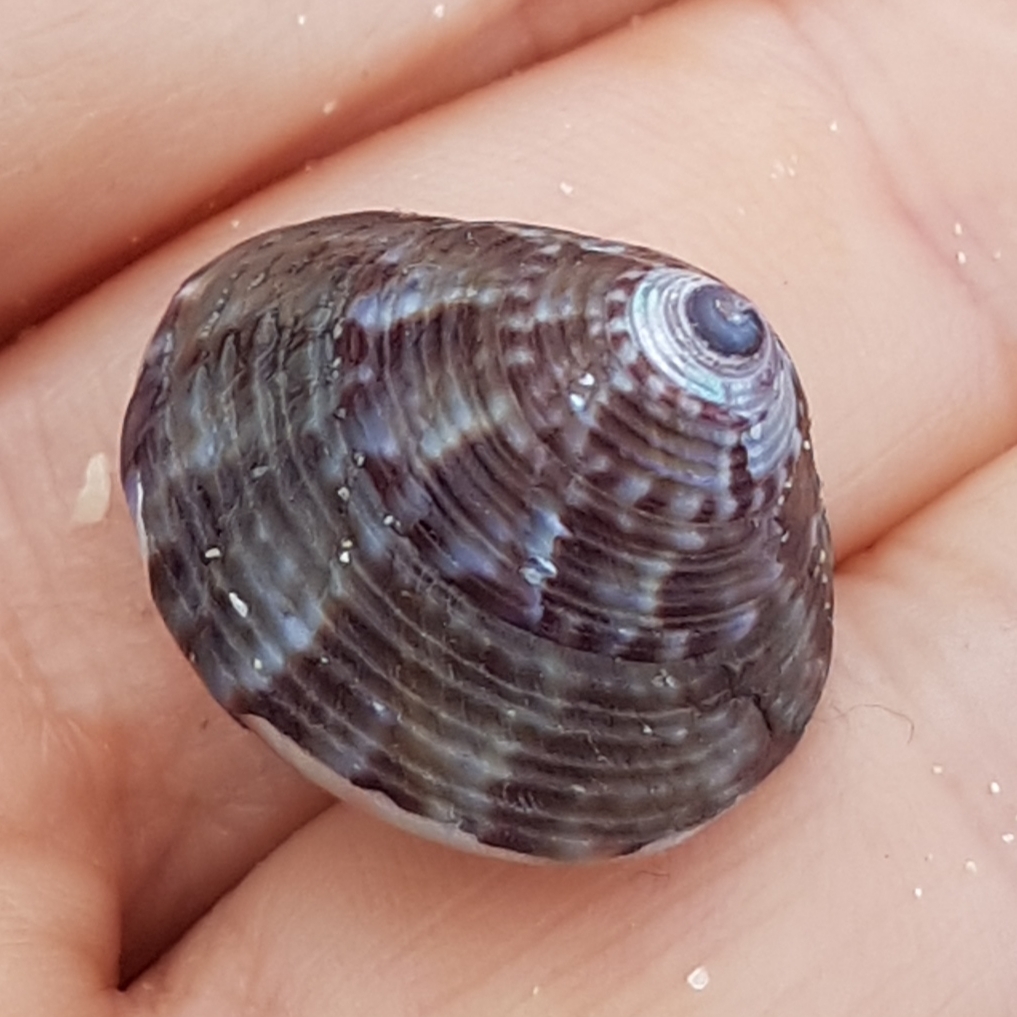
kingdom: Animalia
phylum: Mollusca
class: Gastropoda
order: Trochida
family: Calliostomatidae
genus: Calliostoma
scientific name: Calliostoma zizyphinum
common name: Painted top shell
